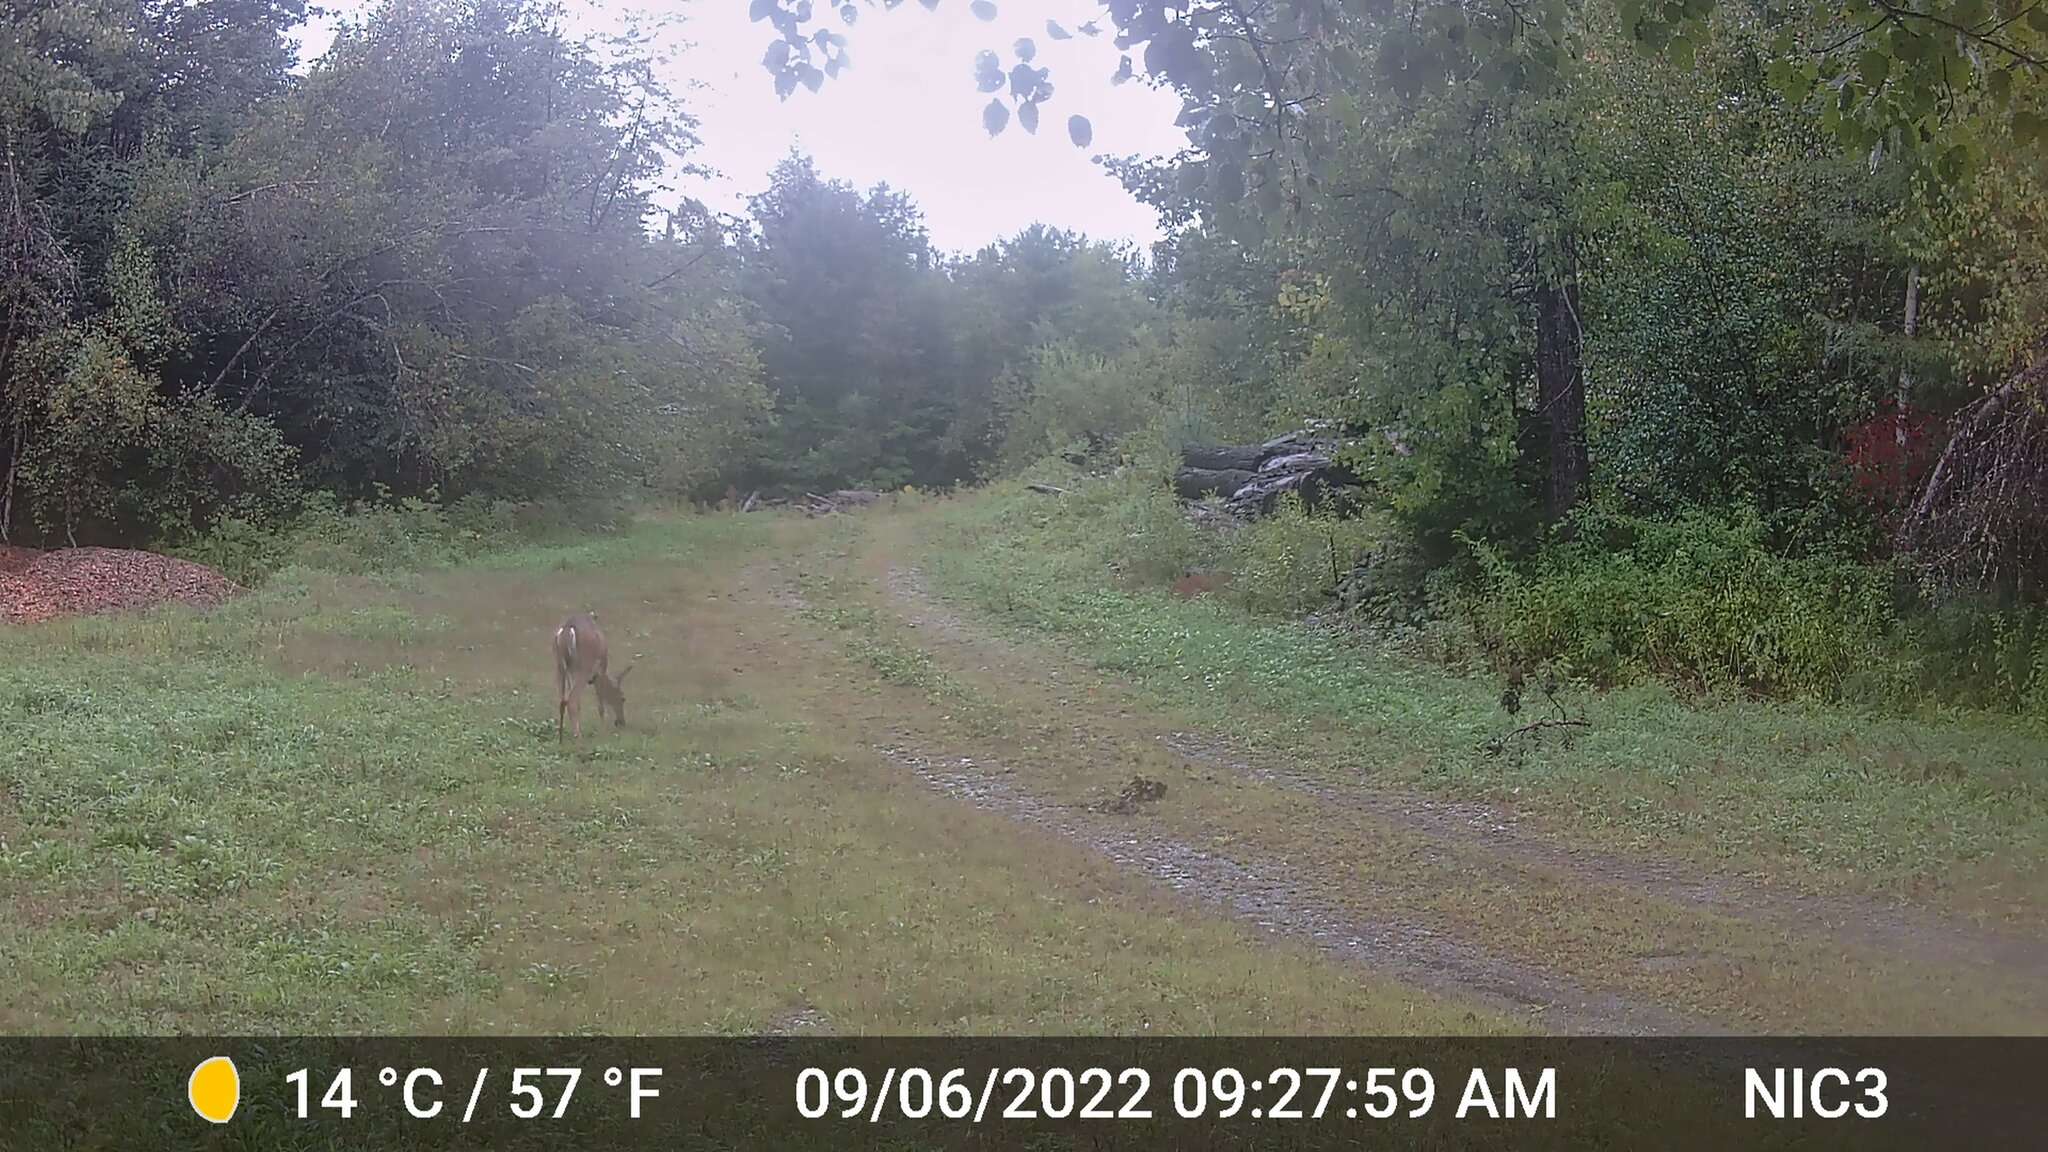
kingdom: Animalia
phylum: Chordata
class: Mammalia
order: Artiodactyla
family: Cervidae
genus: Odocoileus
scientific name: Odocoileus virginianus
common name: White-tailed deer
